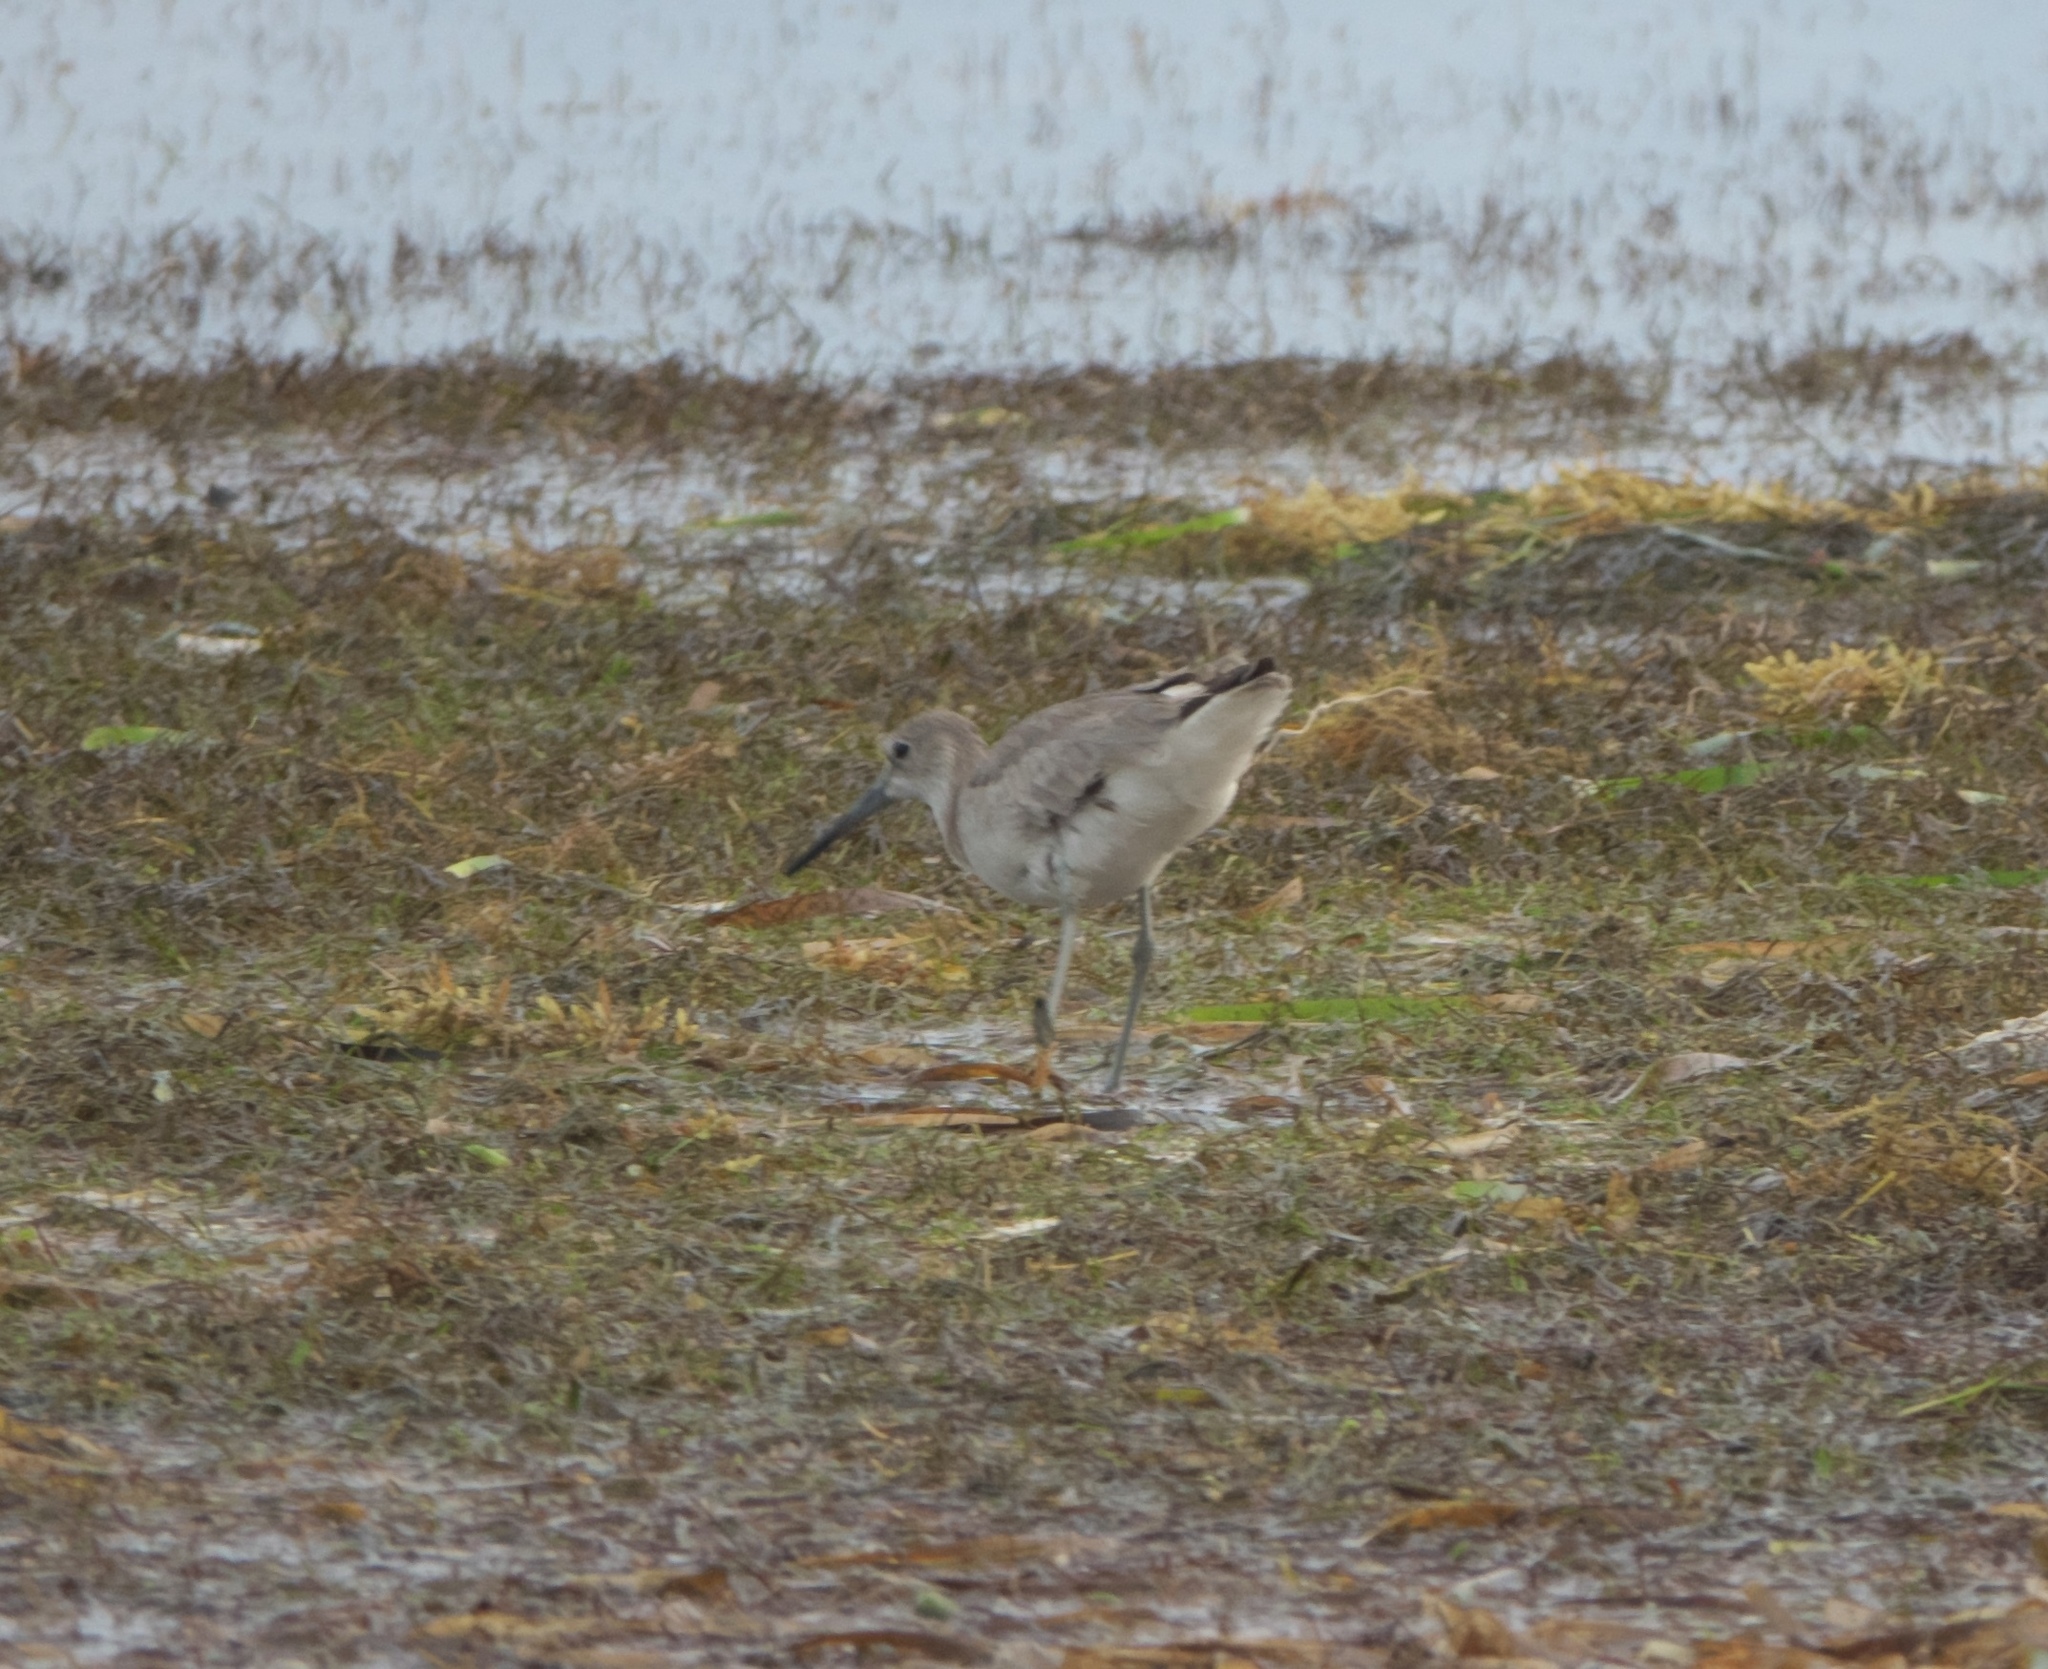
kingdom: Animalia
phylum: Chordata
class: Aves
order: Charadriiformes
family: Scolopacidae
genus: Tringa
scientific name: Tringa semipalmata
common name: Willet
